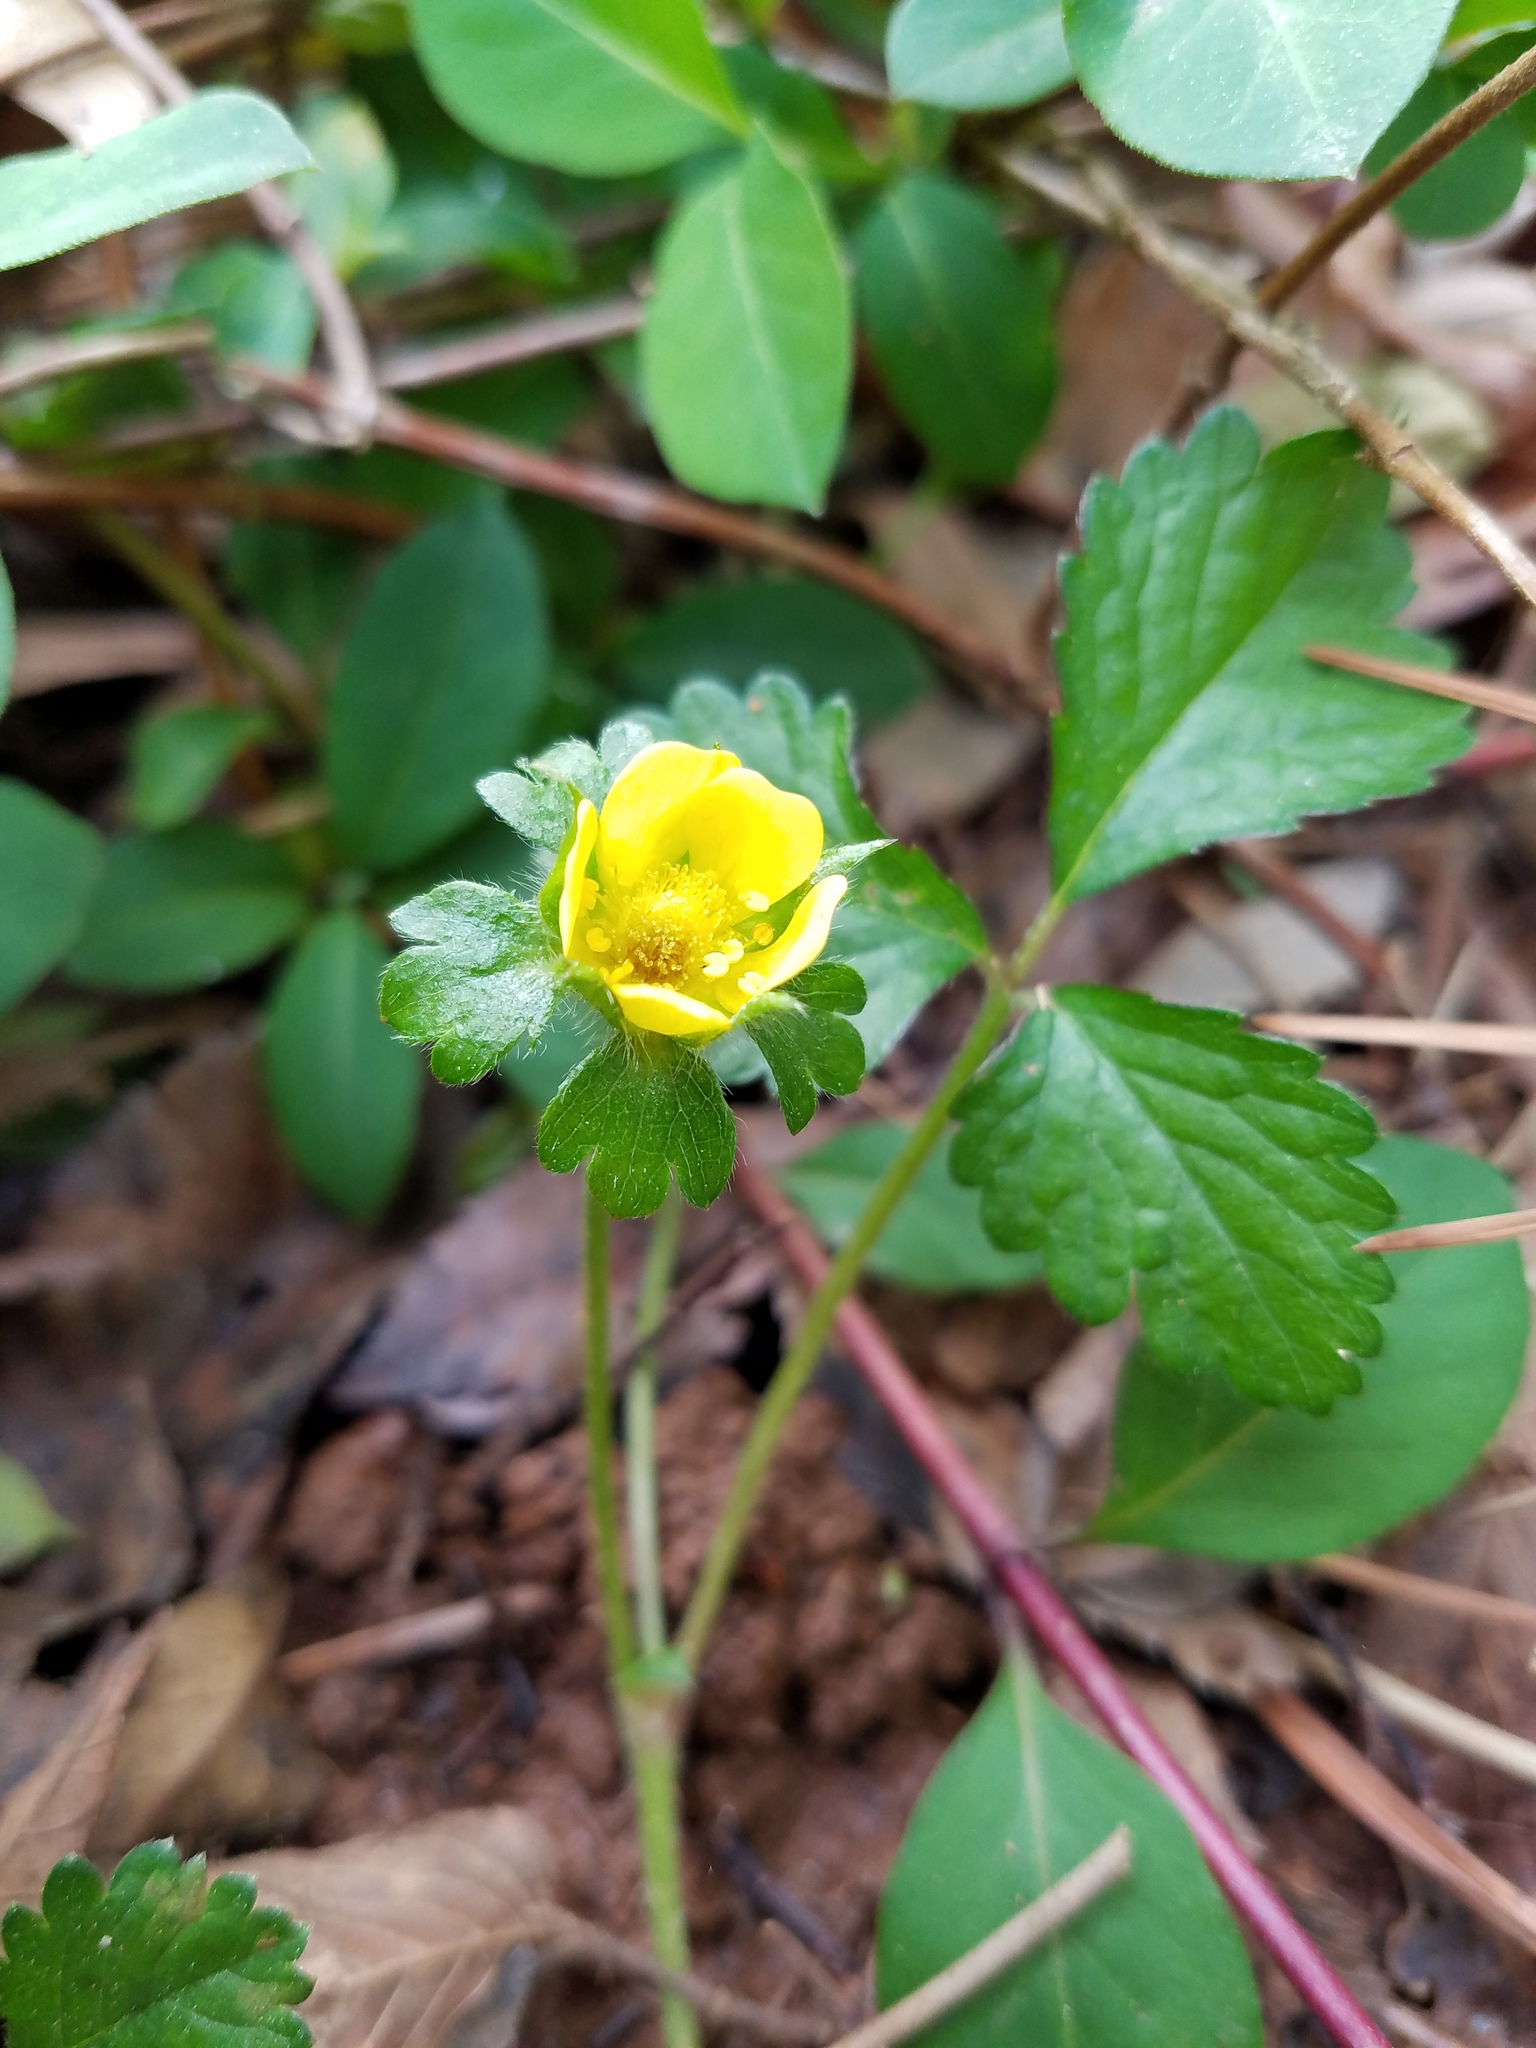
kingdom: Plantae
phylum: Tracheophyta
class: Magnoliopsida
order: Rosales
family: Rosaceae
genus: Potentilla
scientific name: Potentilla indica
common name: Yellow-flowered strawberry
